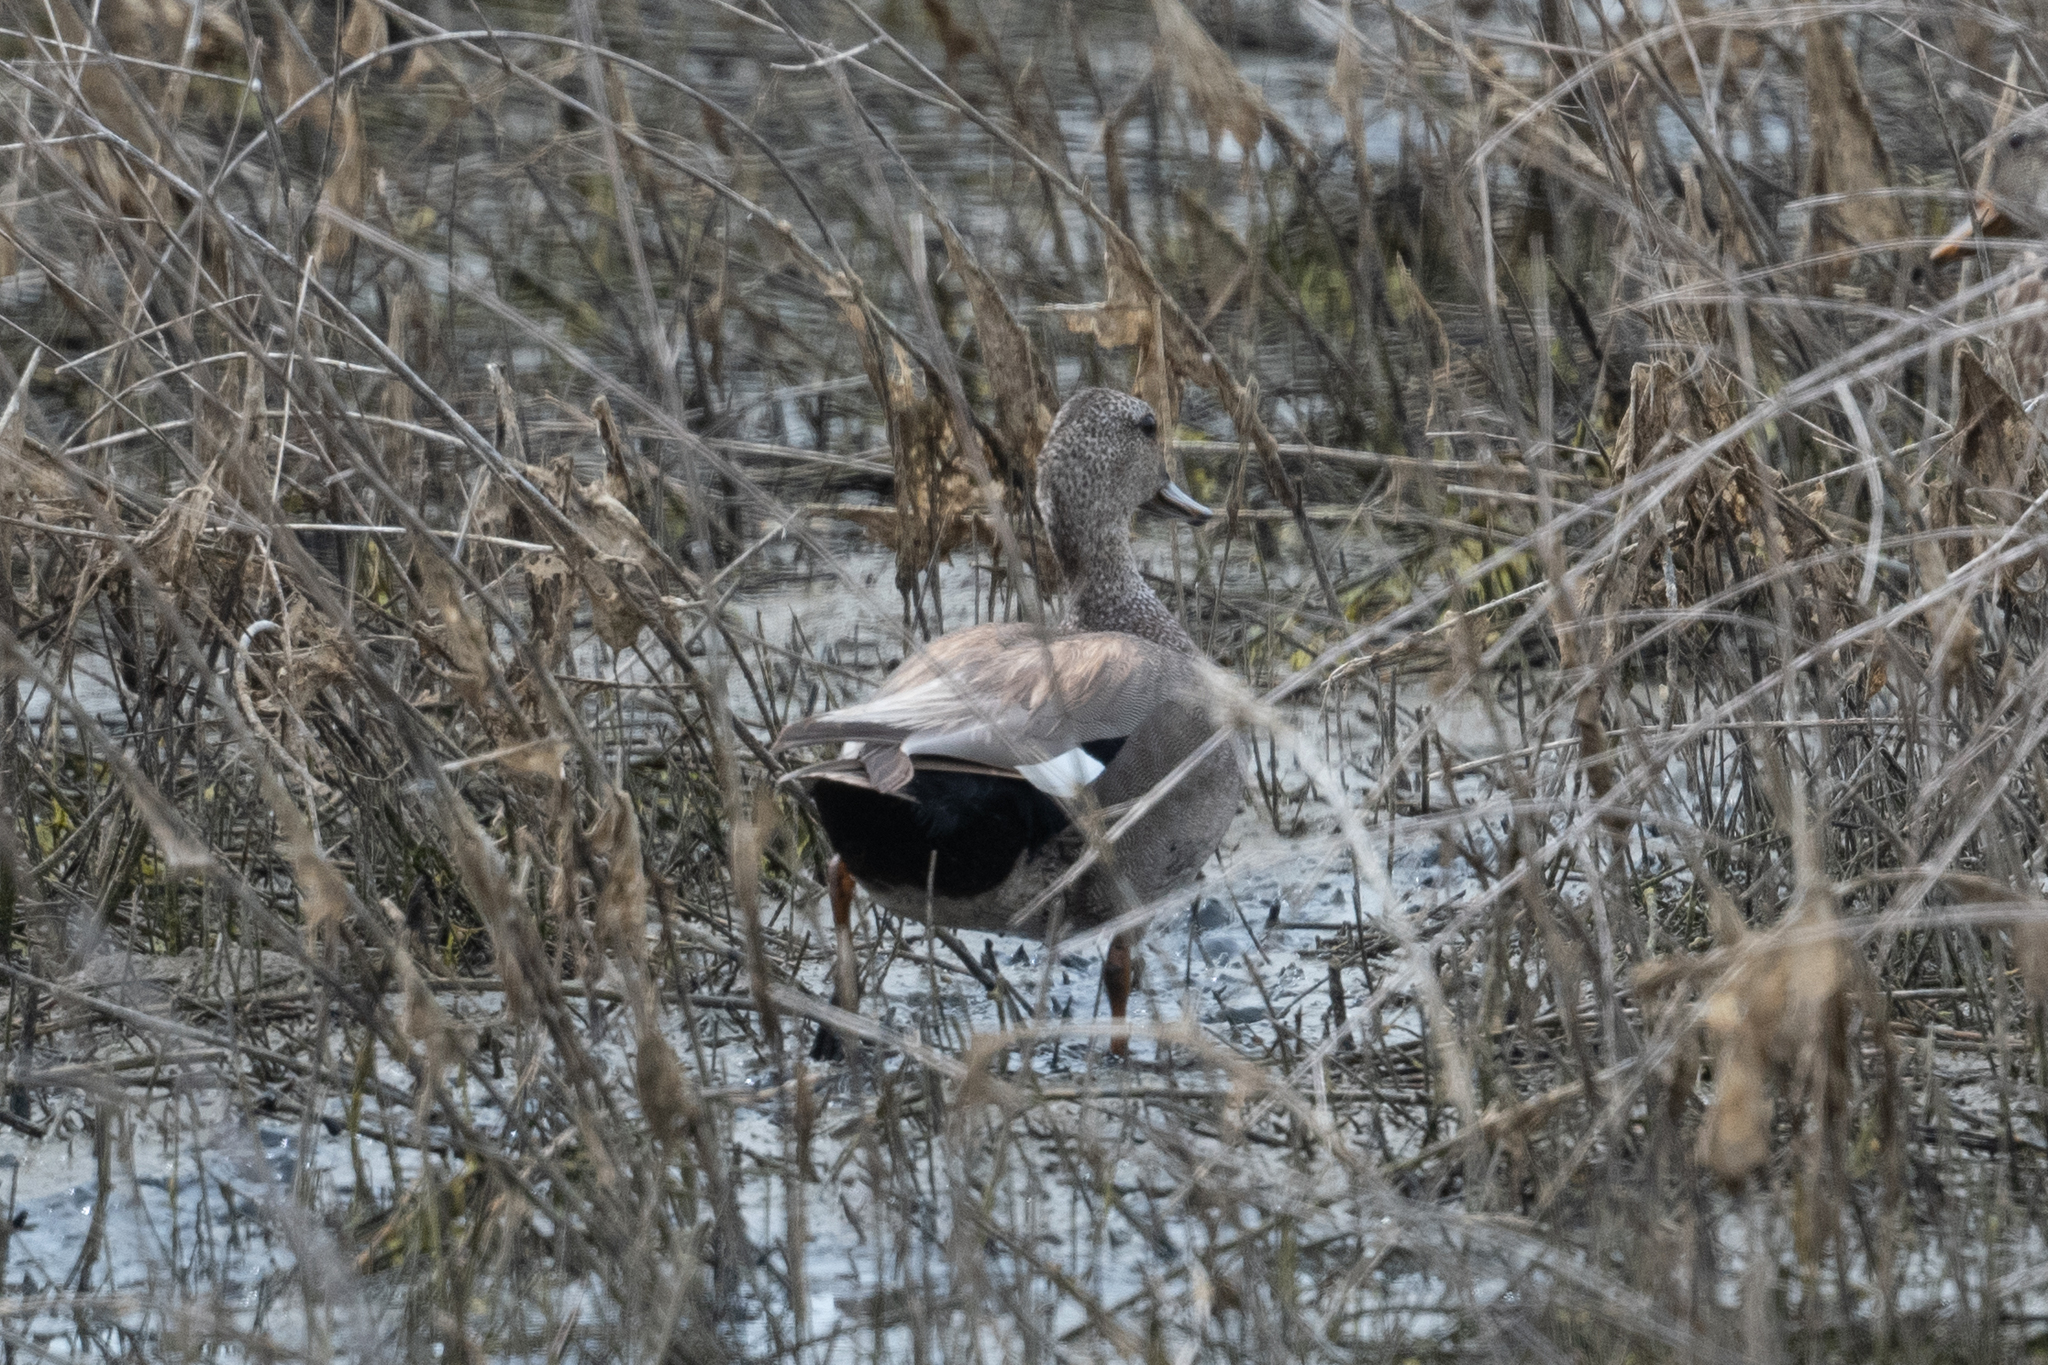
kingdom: Animalia
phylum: Chordata
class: Aves
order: Anseriformes
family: Anatidae
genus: Mareca
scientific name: Mareca strepera
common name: Gadwall
